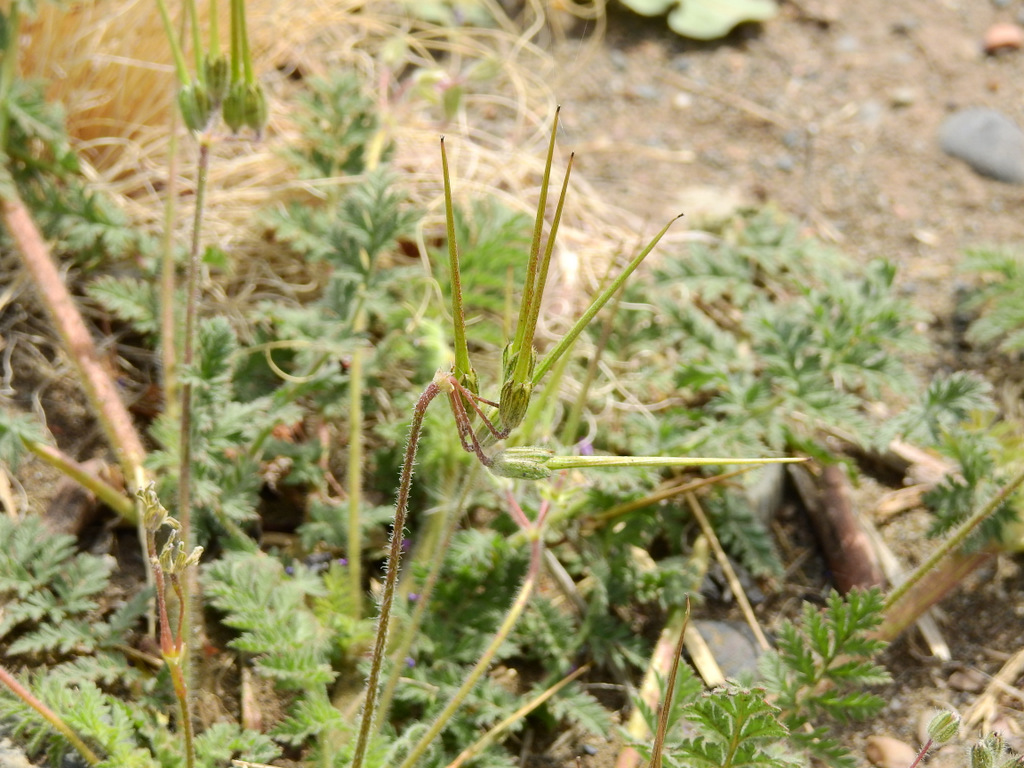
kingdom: Plantae
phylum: Tracheophyta
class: Magnoliopsida
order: Geraniales
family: Geraniaceae
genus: Erodium
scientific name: Erodium cicutarium
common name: Common stork's-bill
